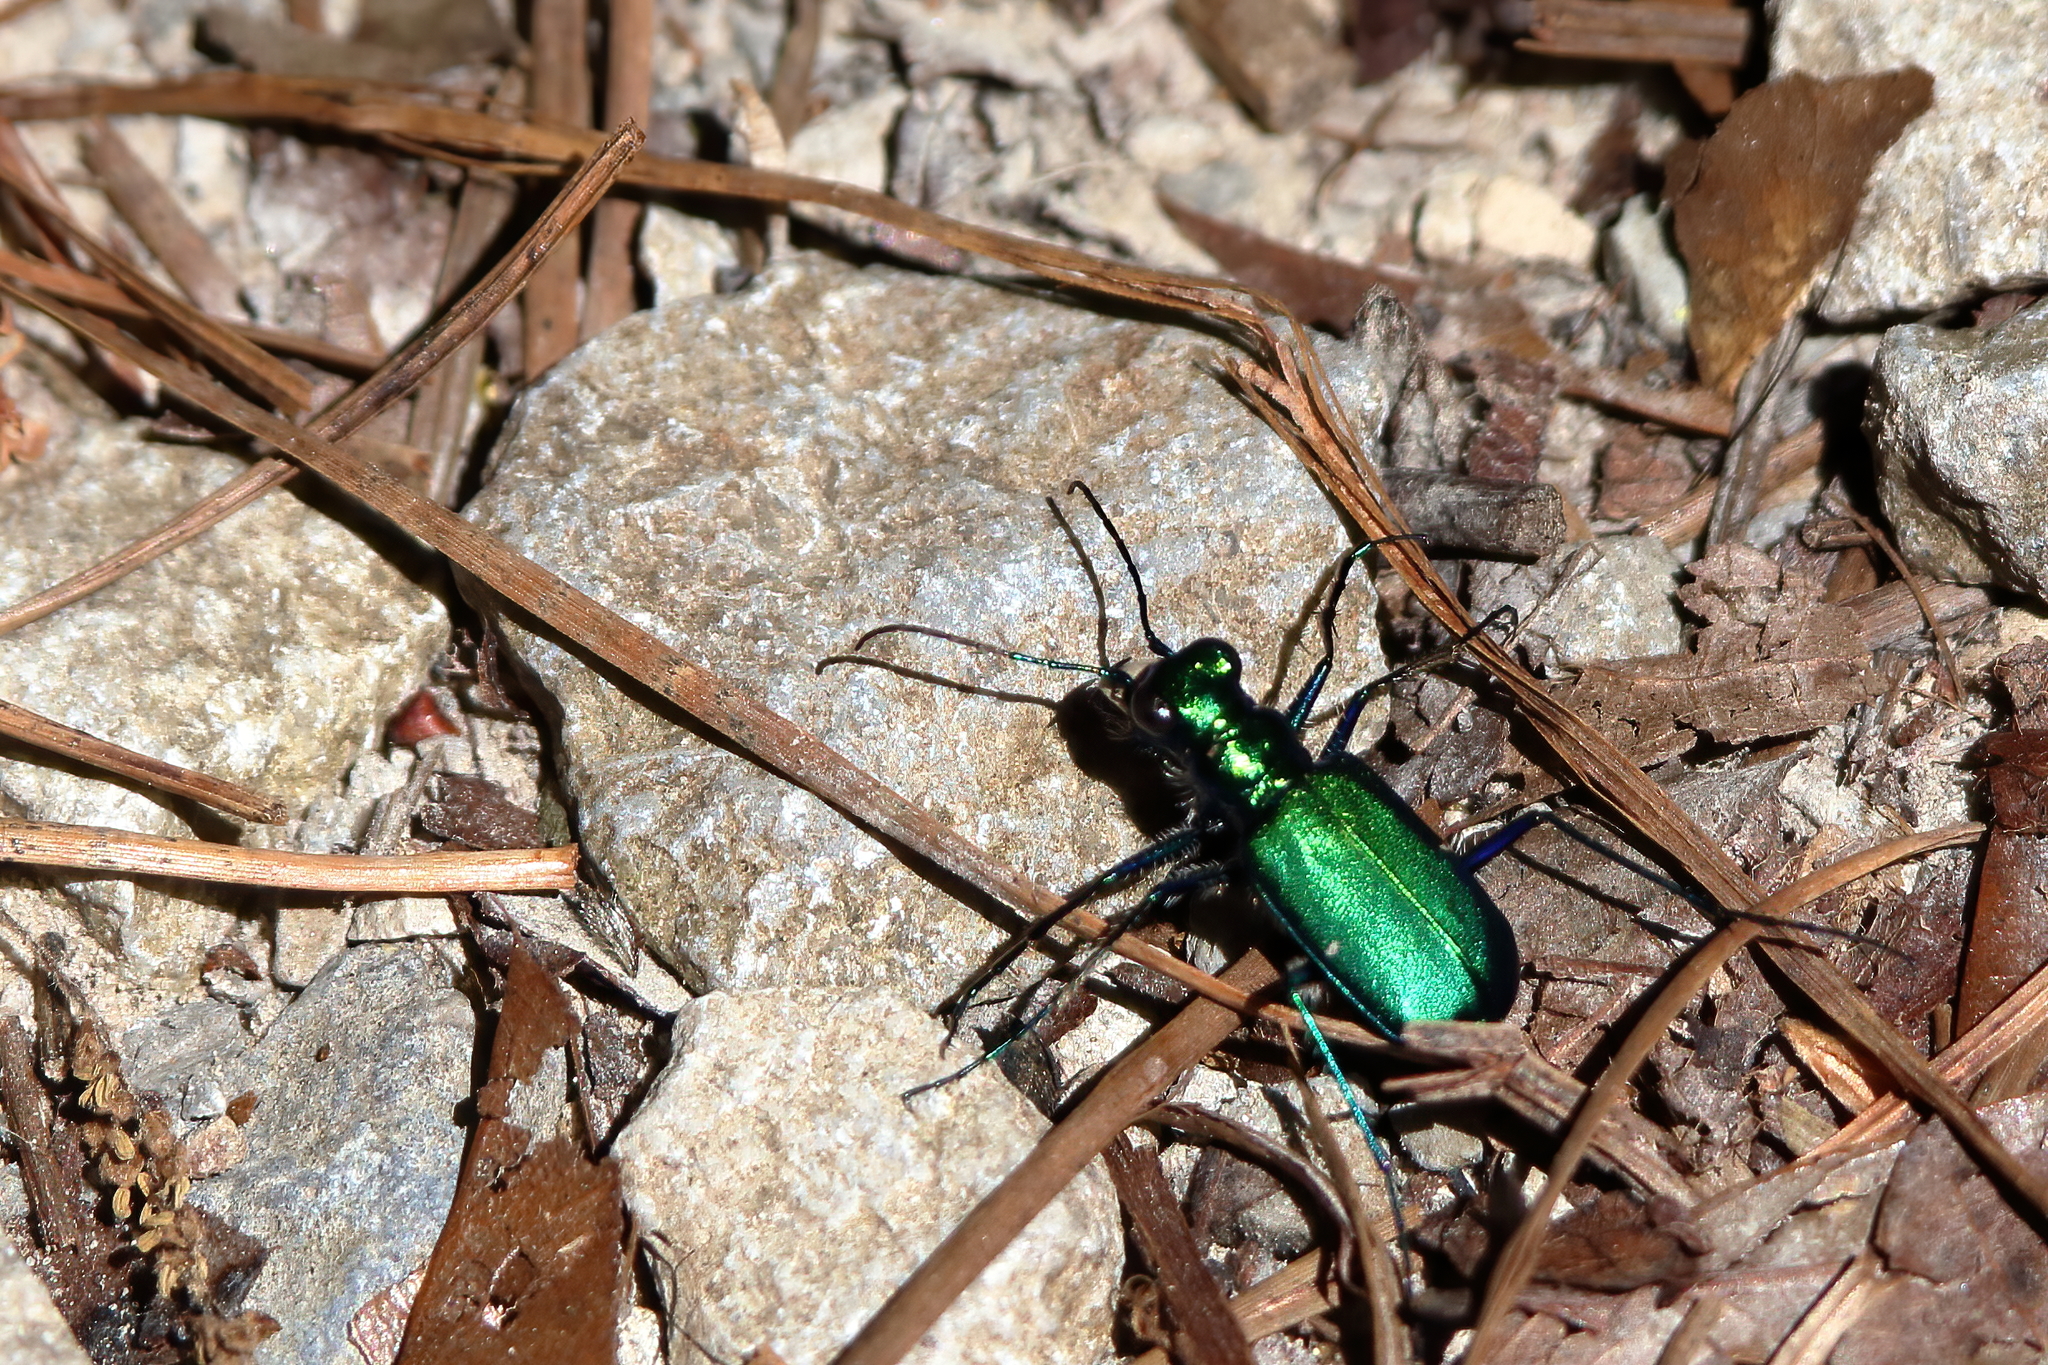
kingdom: Animalia
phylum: Arthropoda
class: Insecta
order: Coleoptera
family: Carabidae
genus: Cicindela
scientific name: Cicindela sexguttata
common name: Six-spotted tiger beetle
